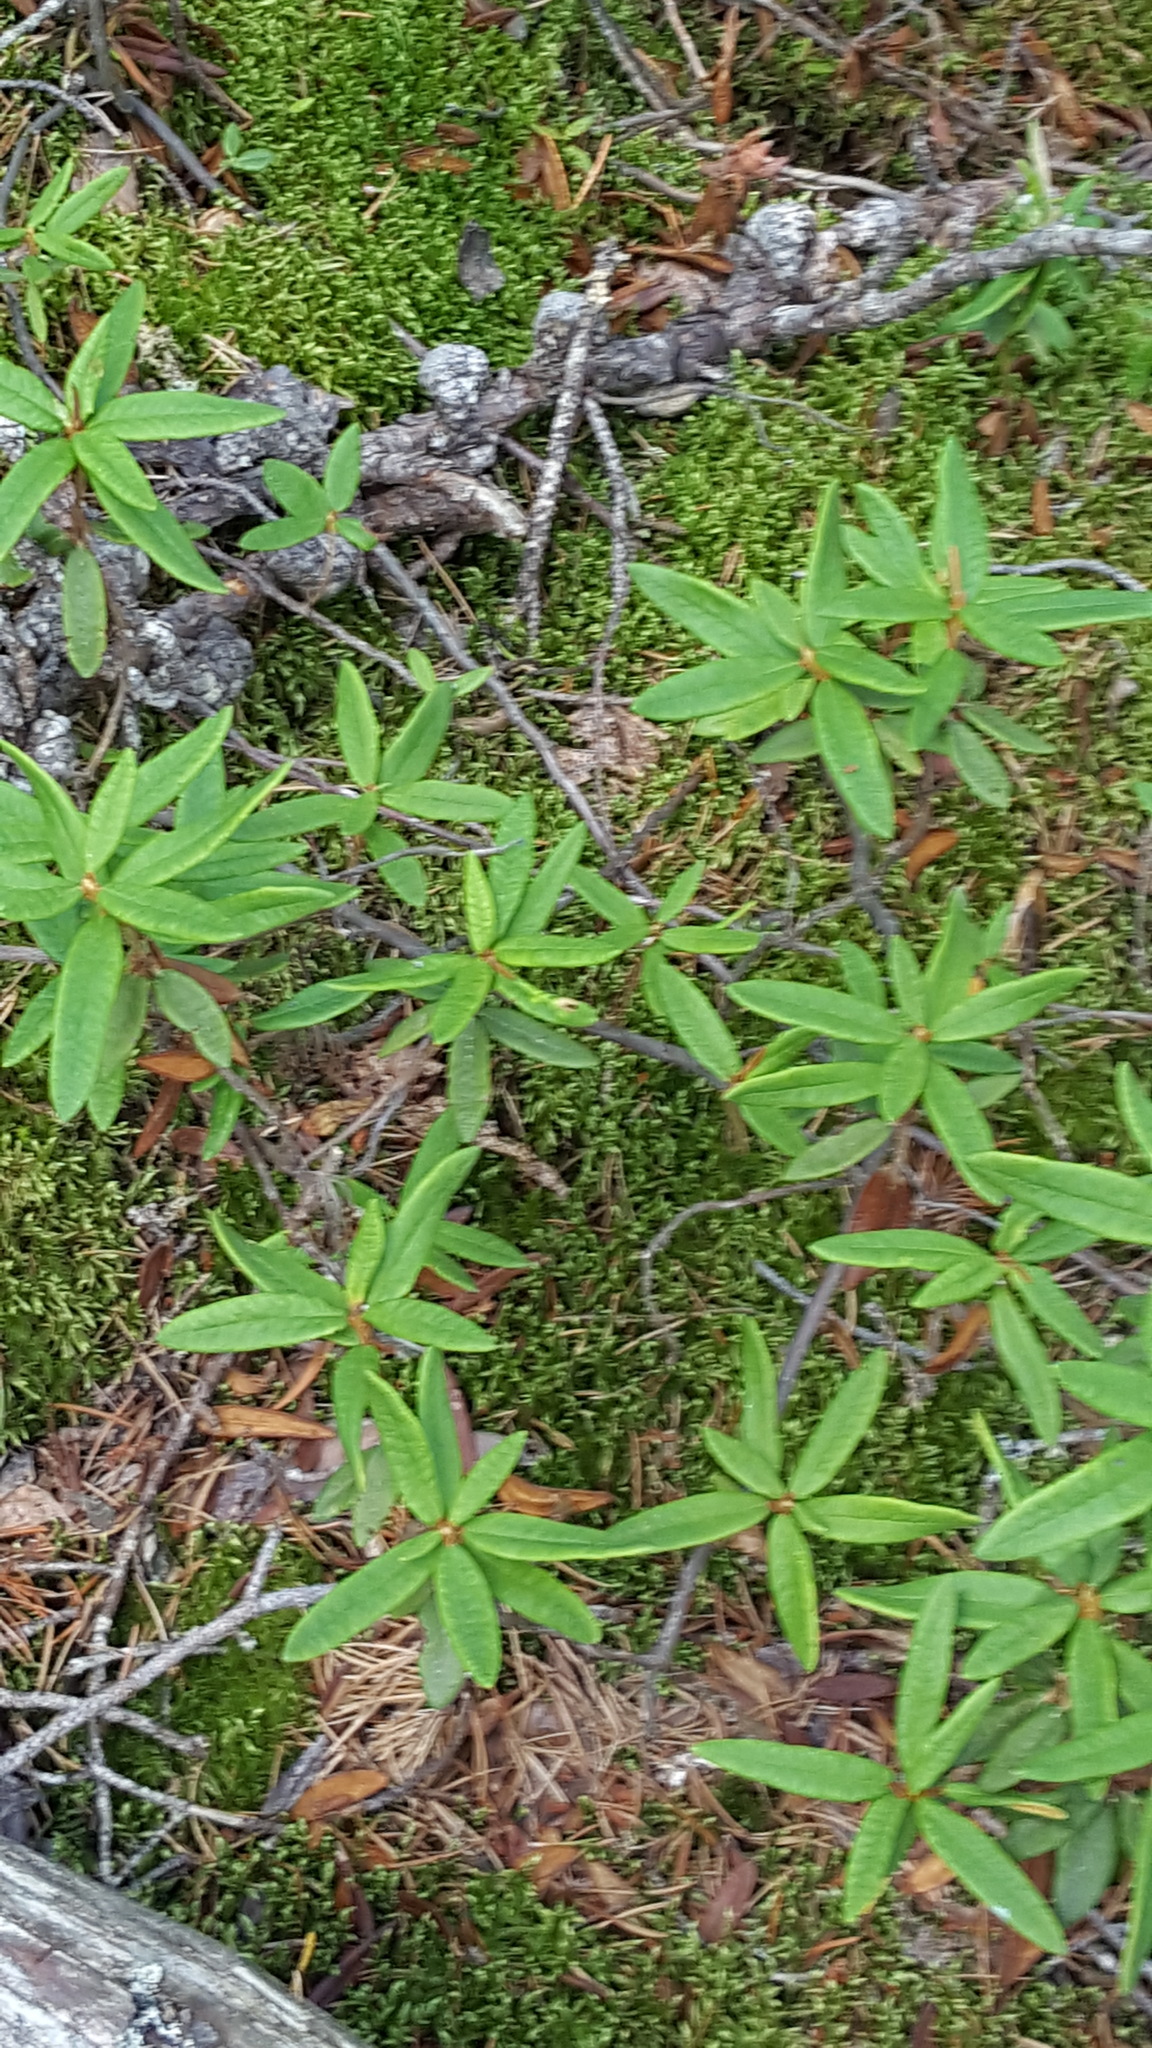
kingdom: Plantae
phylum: Tracheophyta
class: Magnoliopsida
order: Ericales
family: Ericaceae
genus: Rhododendron
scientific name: Rhododendron groenlandicum
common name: Bog labrador tea
